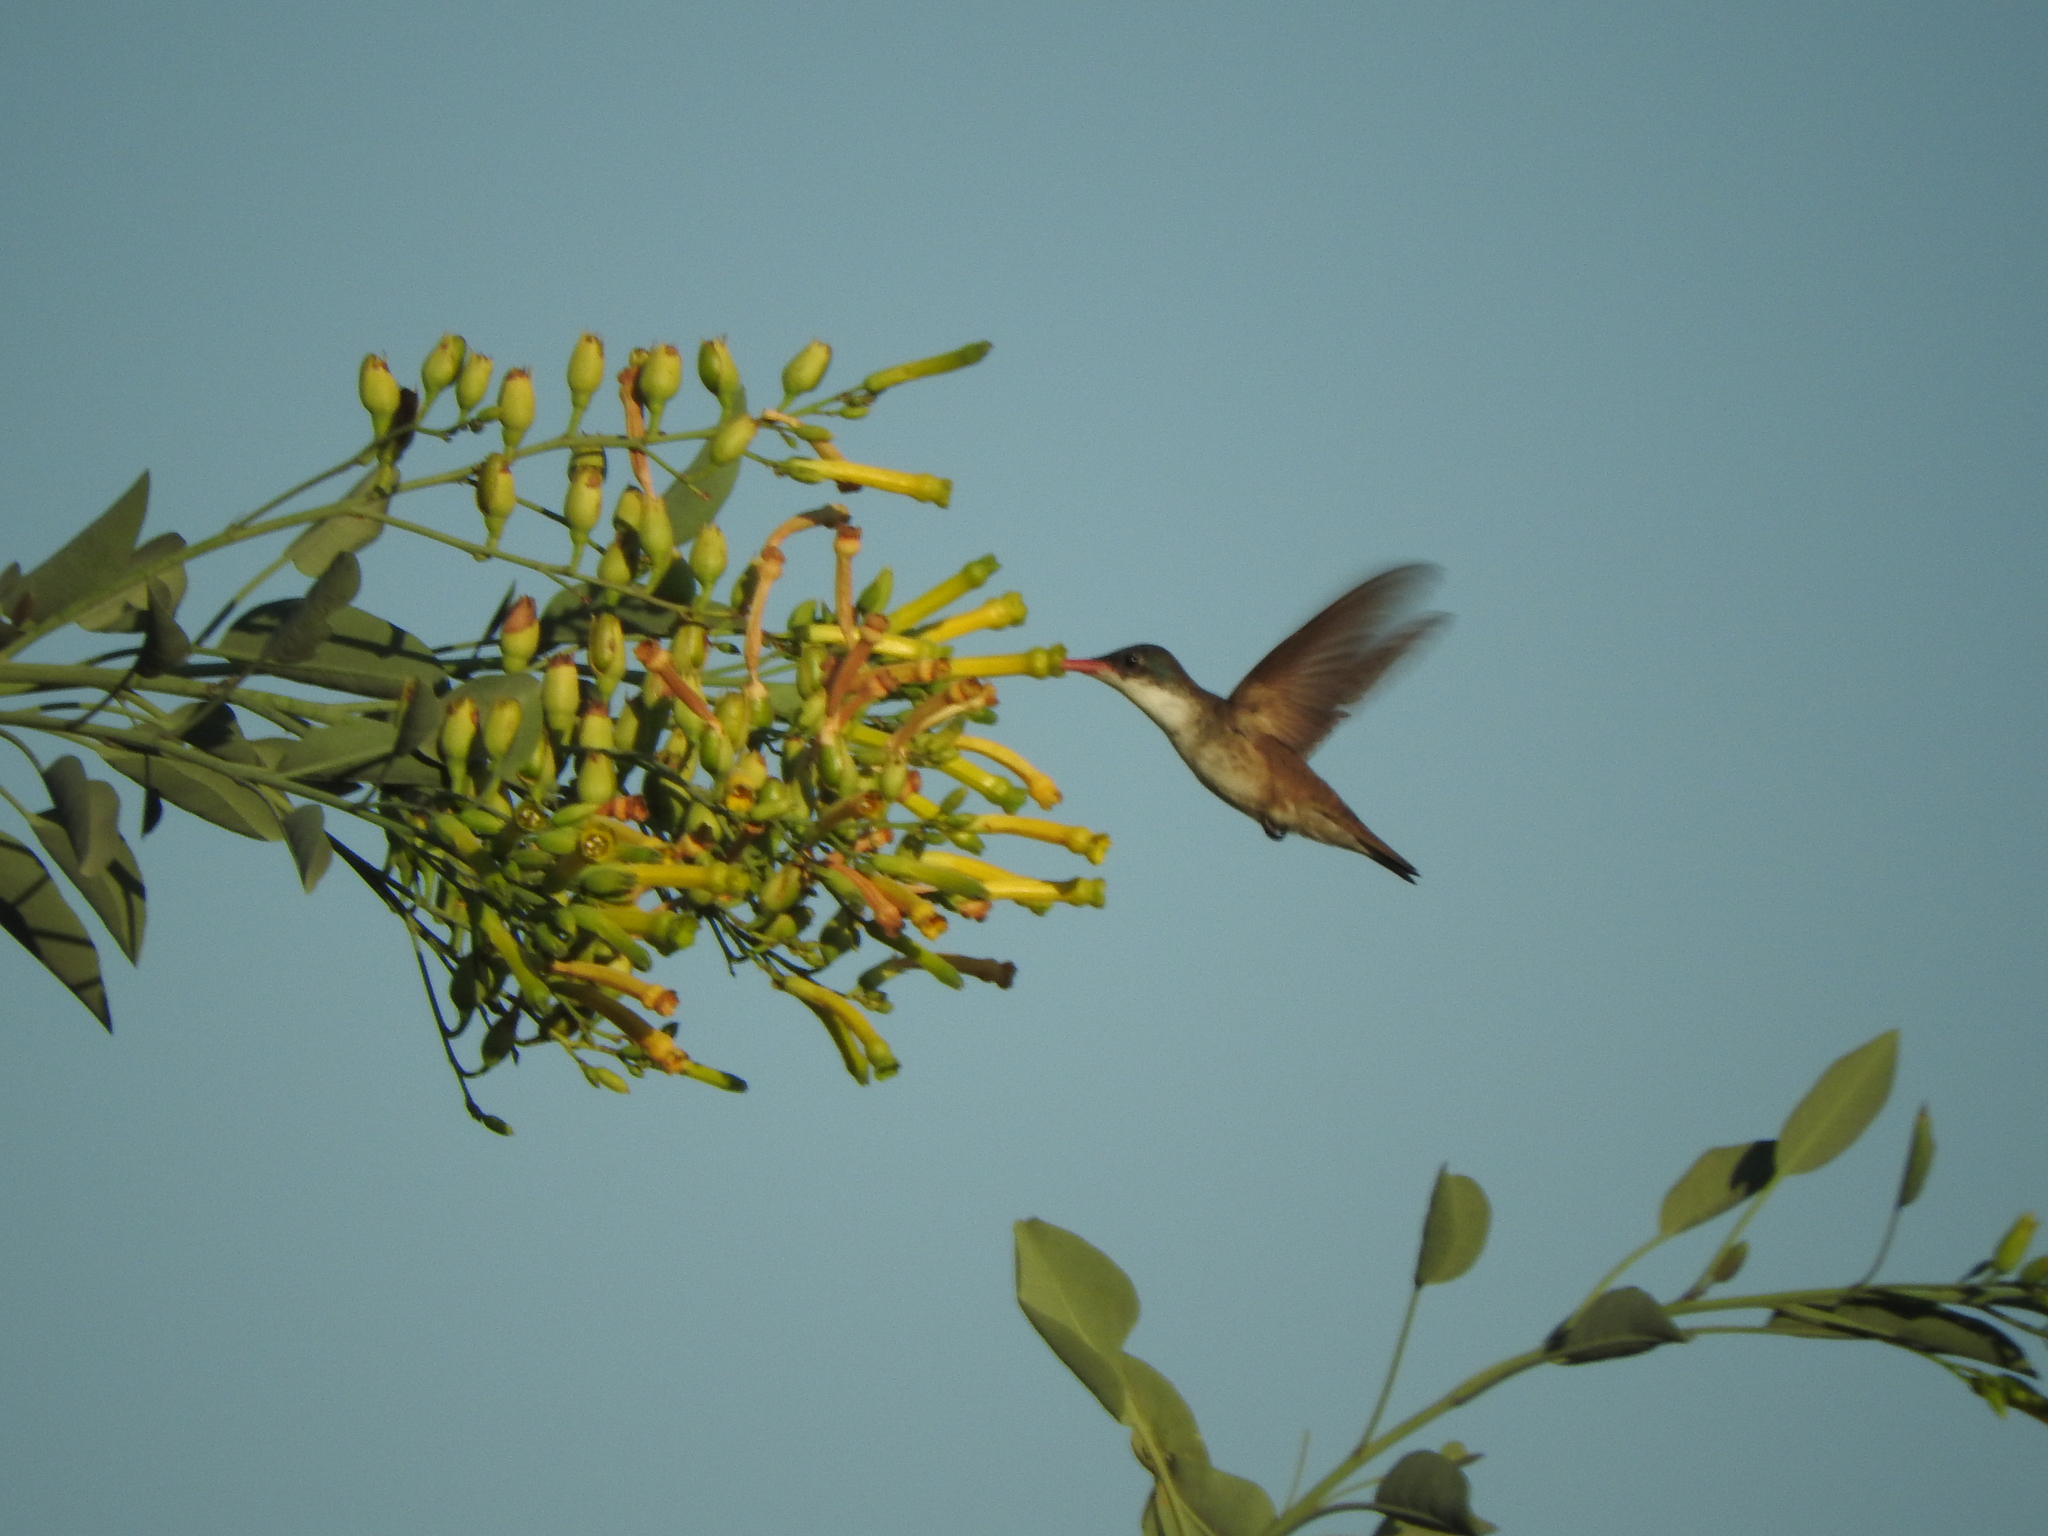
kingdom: Animalia
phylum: Chordata
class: Aves
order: Apodiformes
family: Trochilidae
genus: Leucolia
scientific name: Leucolia violiceps
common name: Violet-crowned hummingbird
